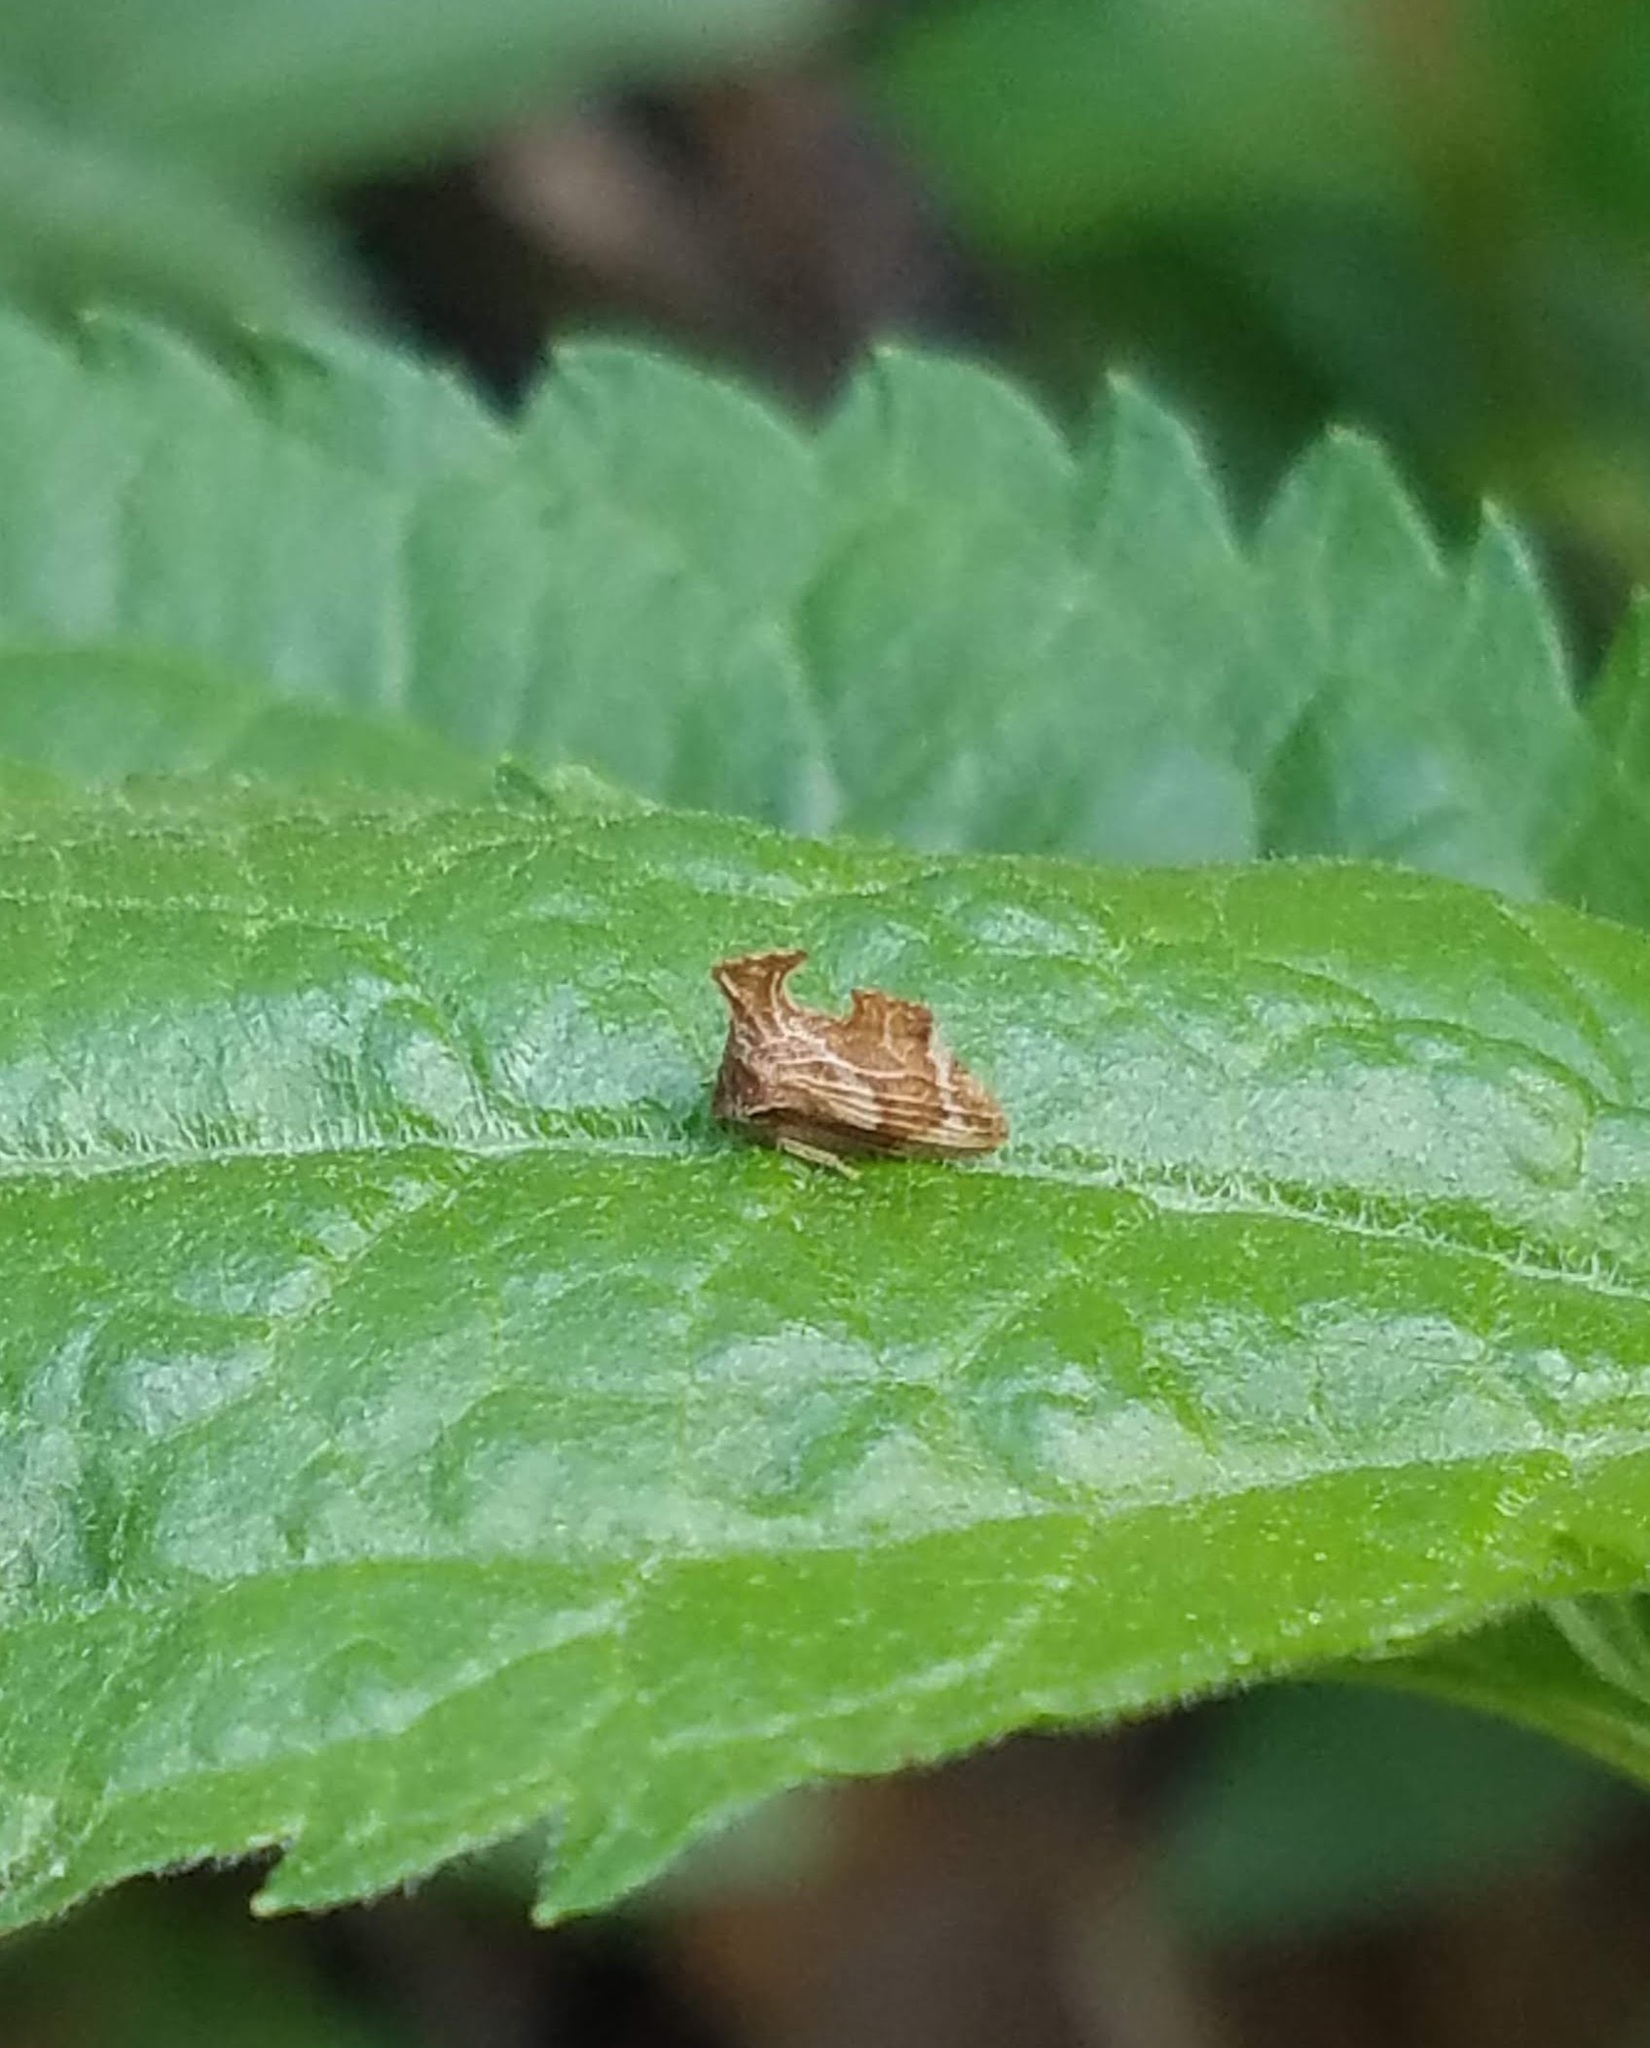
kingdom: Animalia
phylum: Arthropoda
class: Insecta
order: Hemiptera
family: Membracidae
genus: Entylia
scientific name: Entylia carinata
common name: Keeled treehopper
